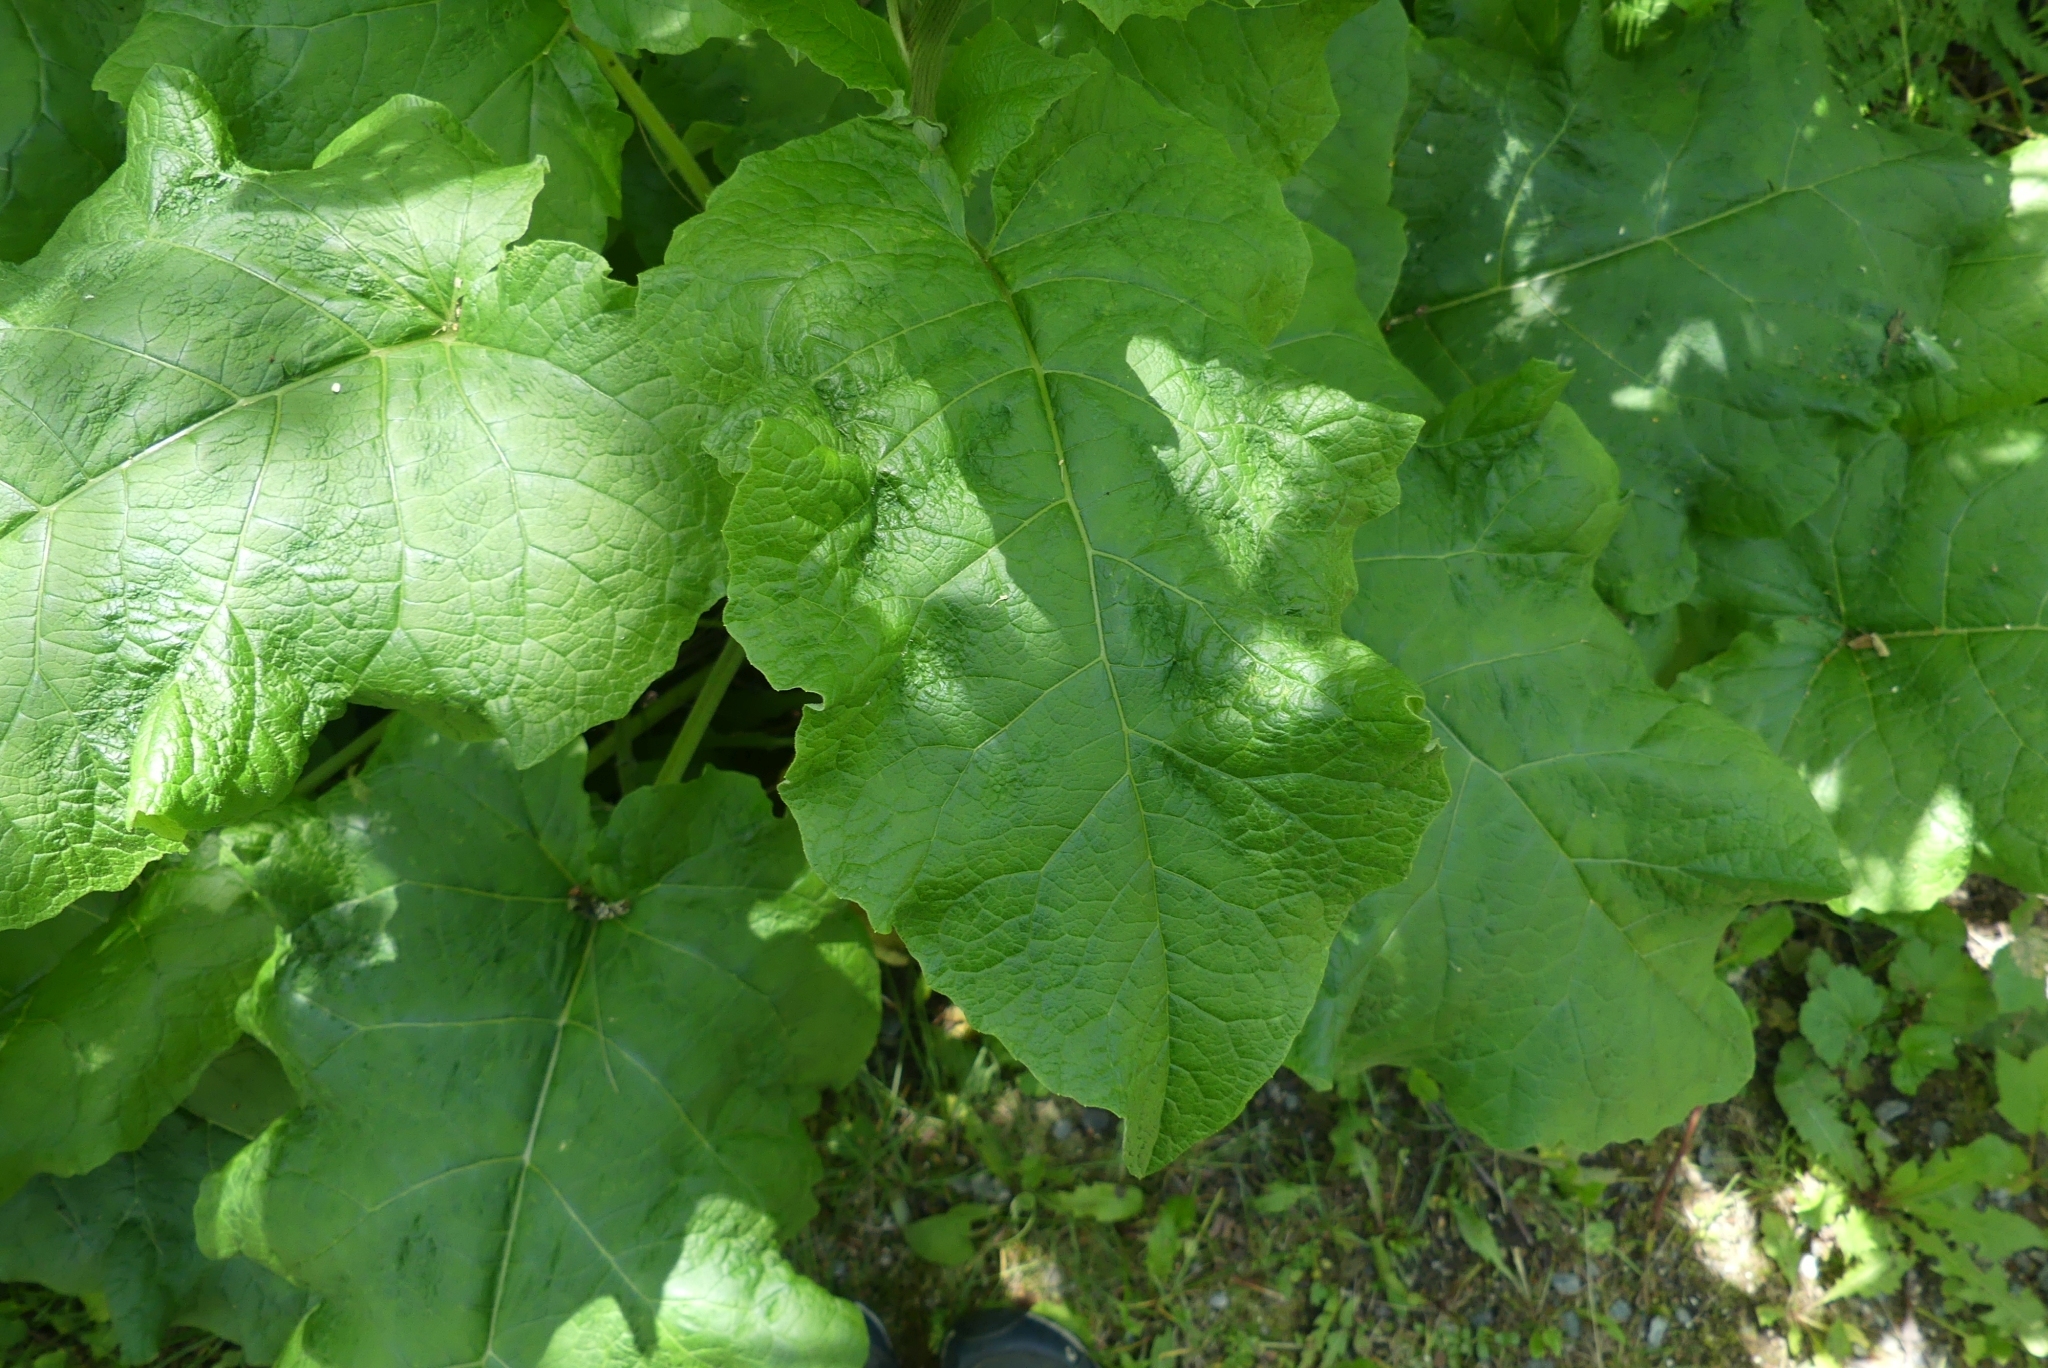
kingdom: Plantae
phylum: Tracheophyta
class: Magnoliopsida
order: Asterales
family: Asteraceae
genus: Arctium
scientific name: Arctium
